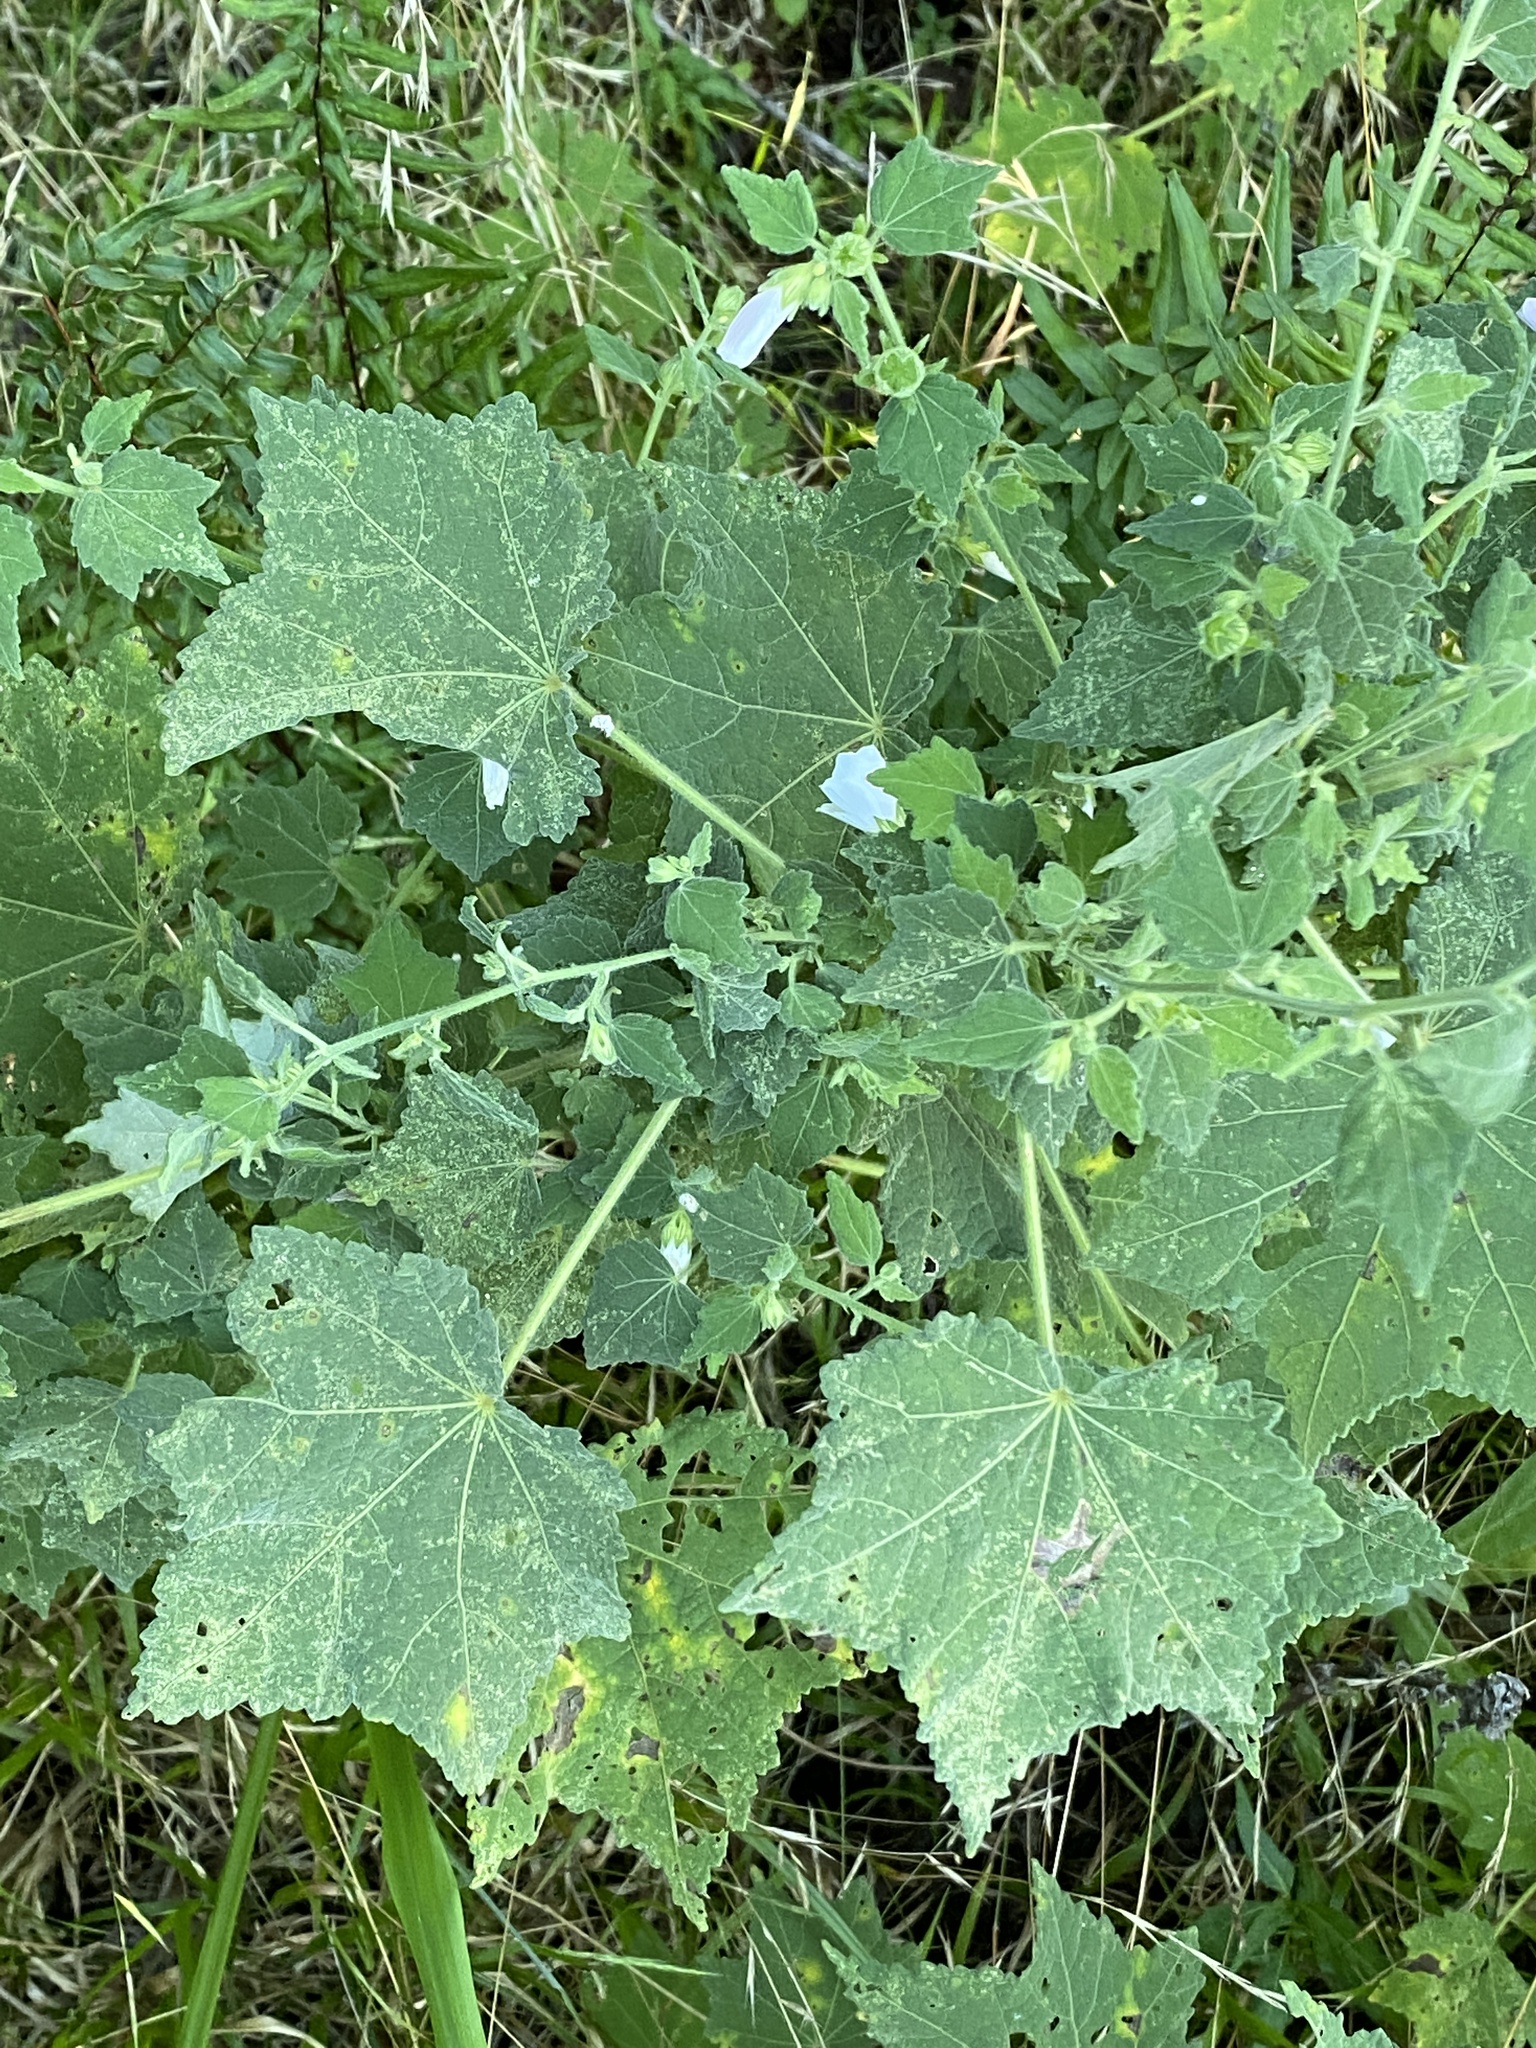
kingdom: Plantae
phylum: Tracheophyta
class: Magnoliopsida
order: Malvales
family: Malvaceae
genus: Pavonia
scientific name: Pavonia columella
